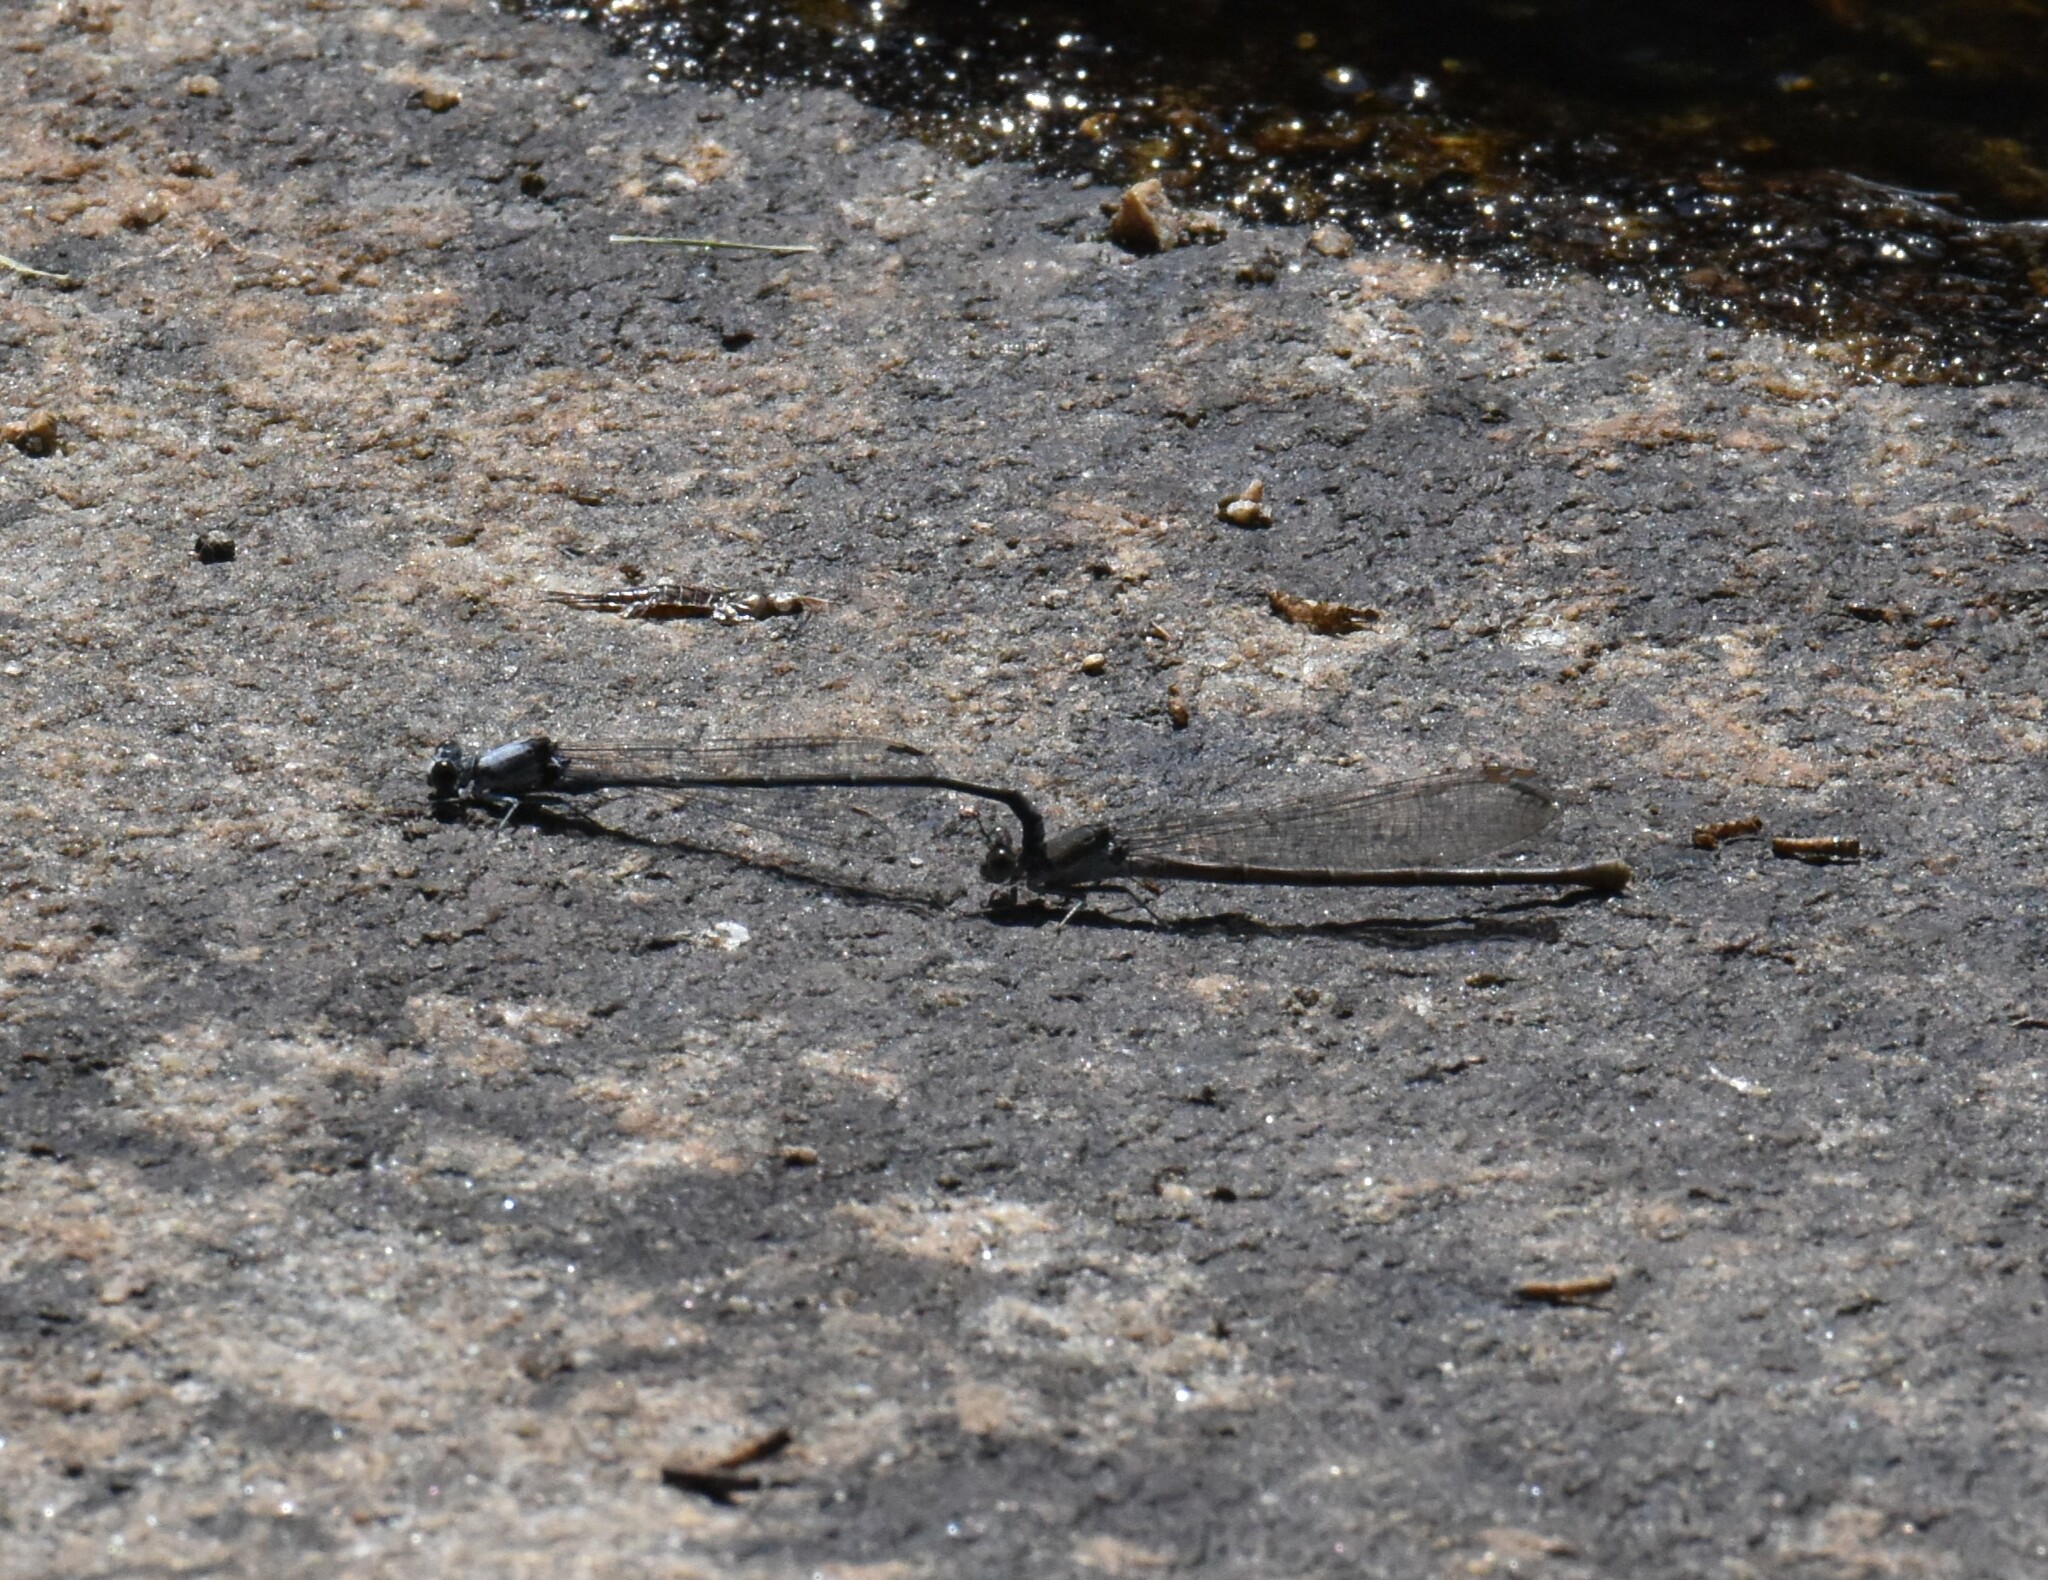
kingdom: Animalia
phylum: Arthropoda
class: Insecta
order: Odonata
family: Coenagrionidae
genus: Argia
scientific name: Argia moesta
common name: Powdered dancer
